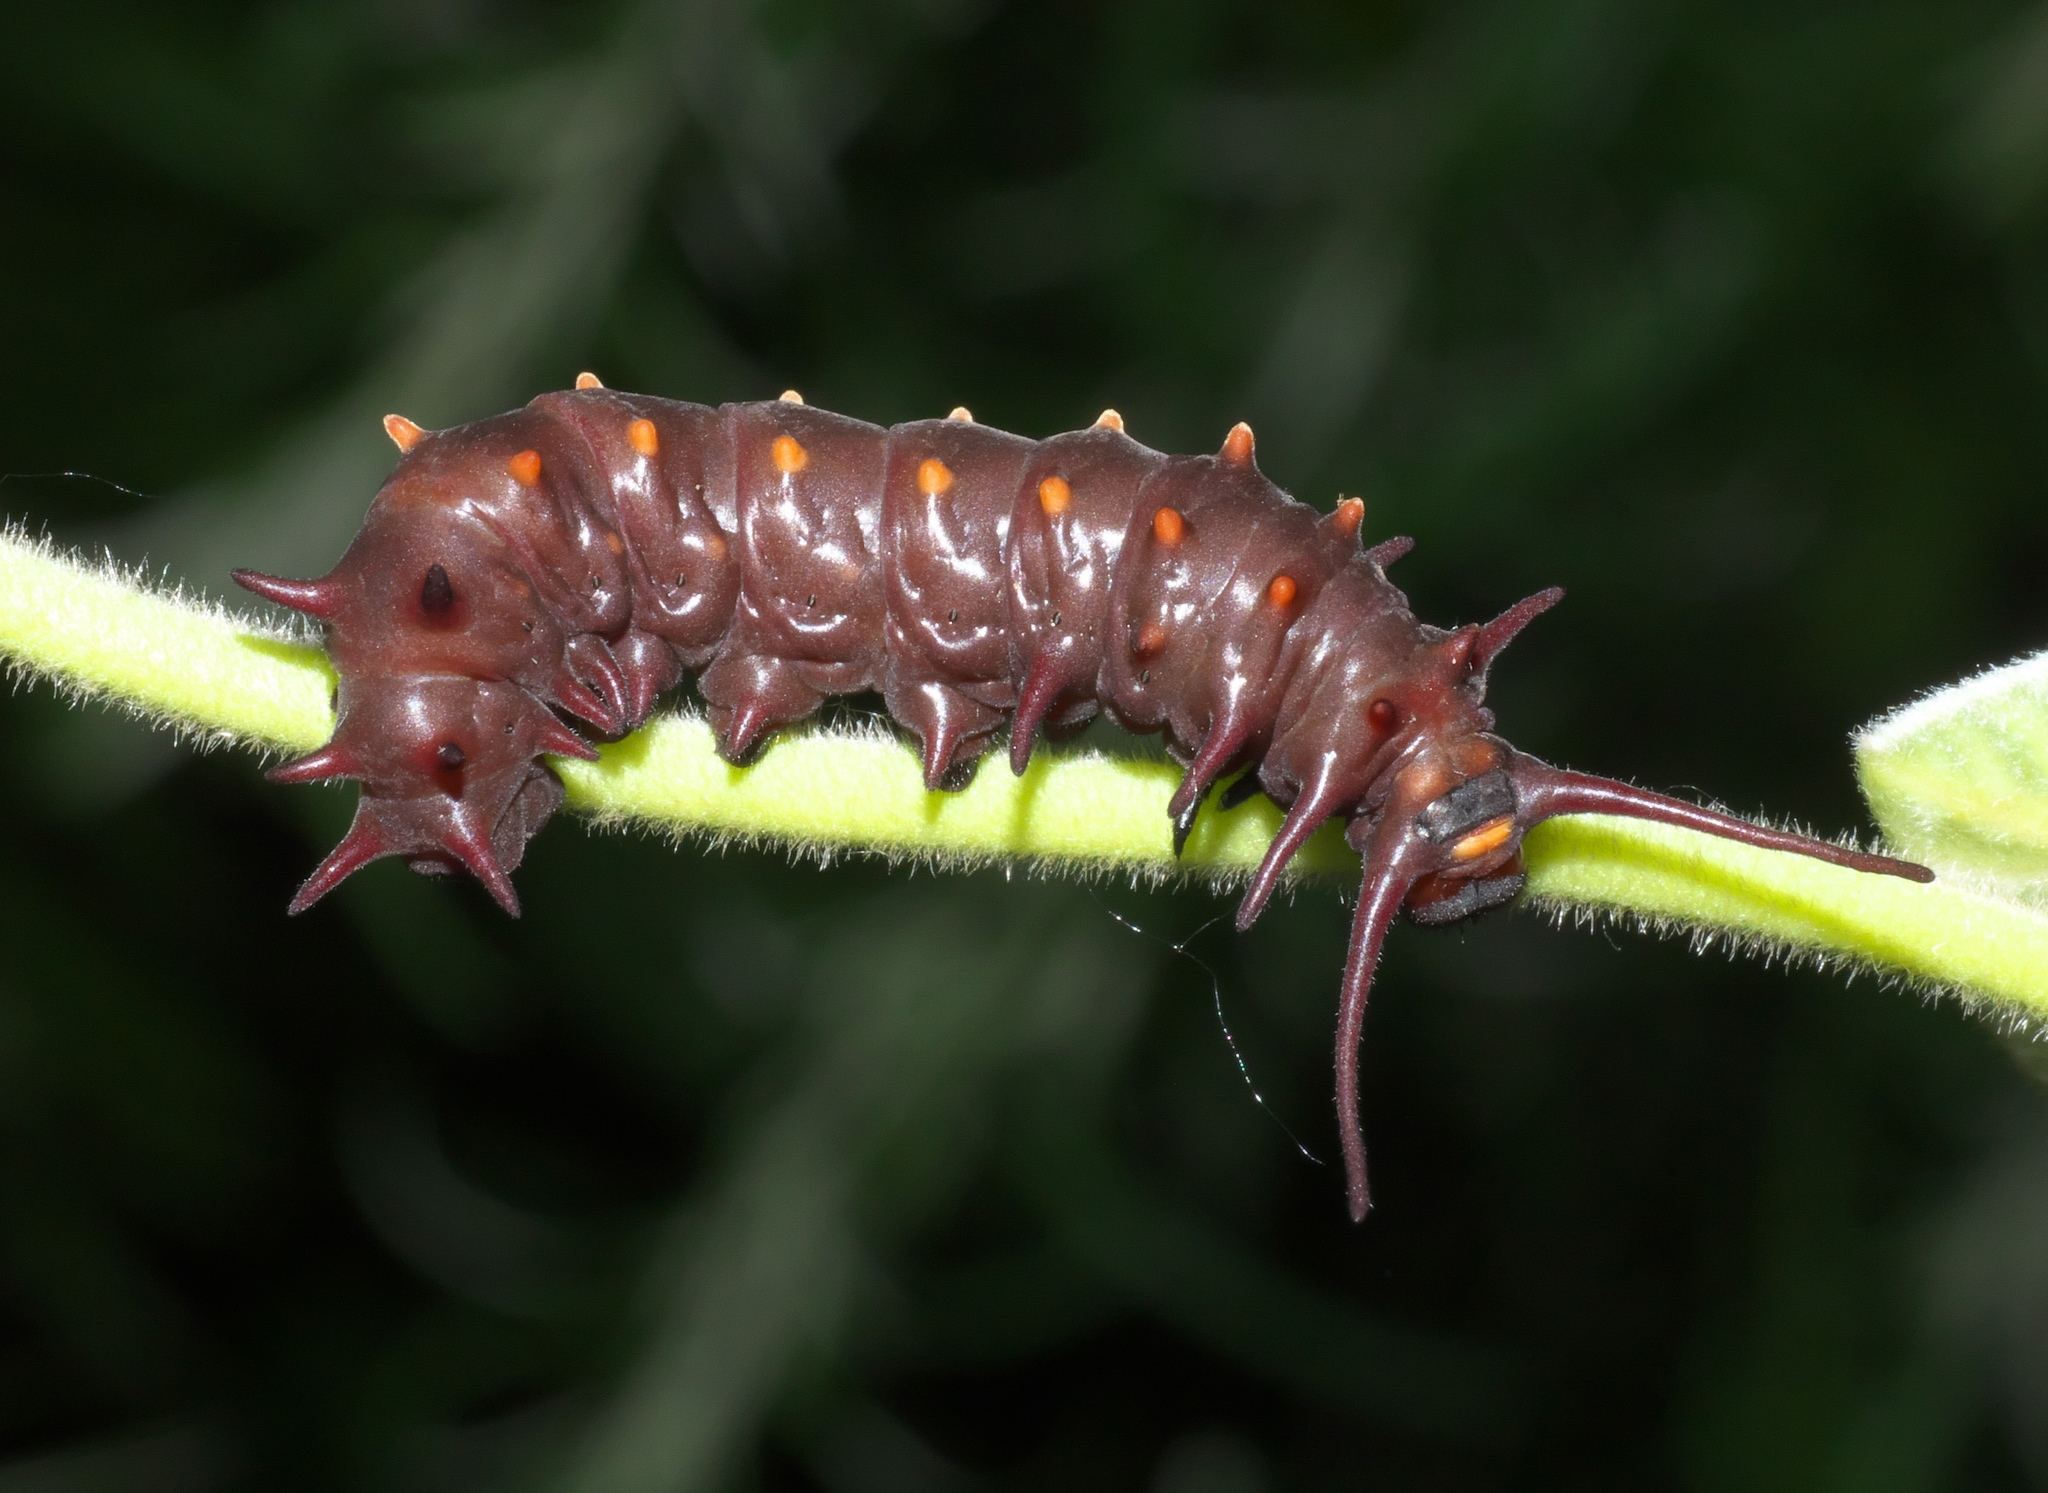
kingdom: Animalia
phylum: Arthropoda
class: Insecta
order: Lepidoptera
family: Papilionidae
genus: Battus
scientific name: Battus philenor
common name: Pipevine swallowtail
